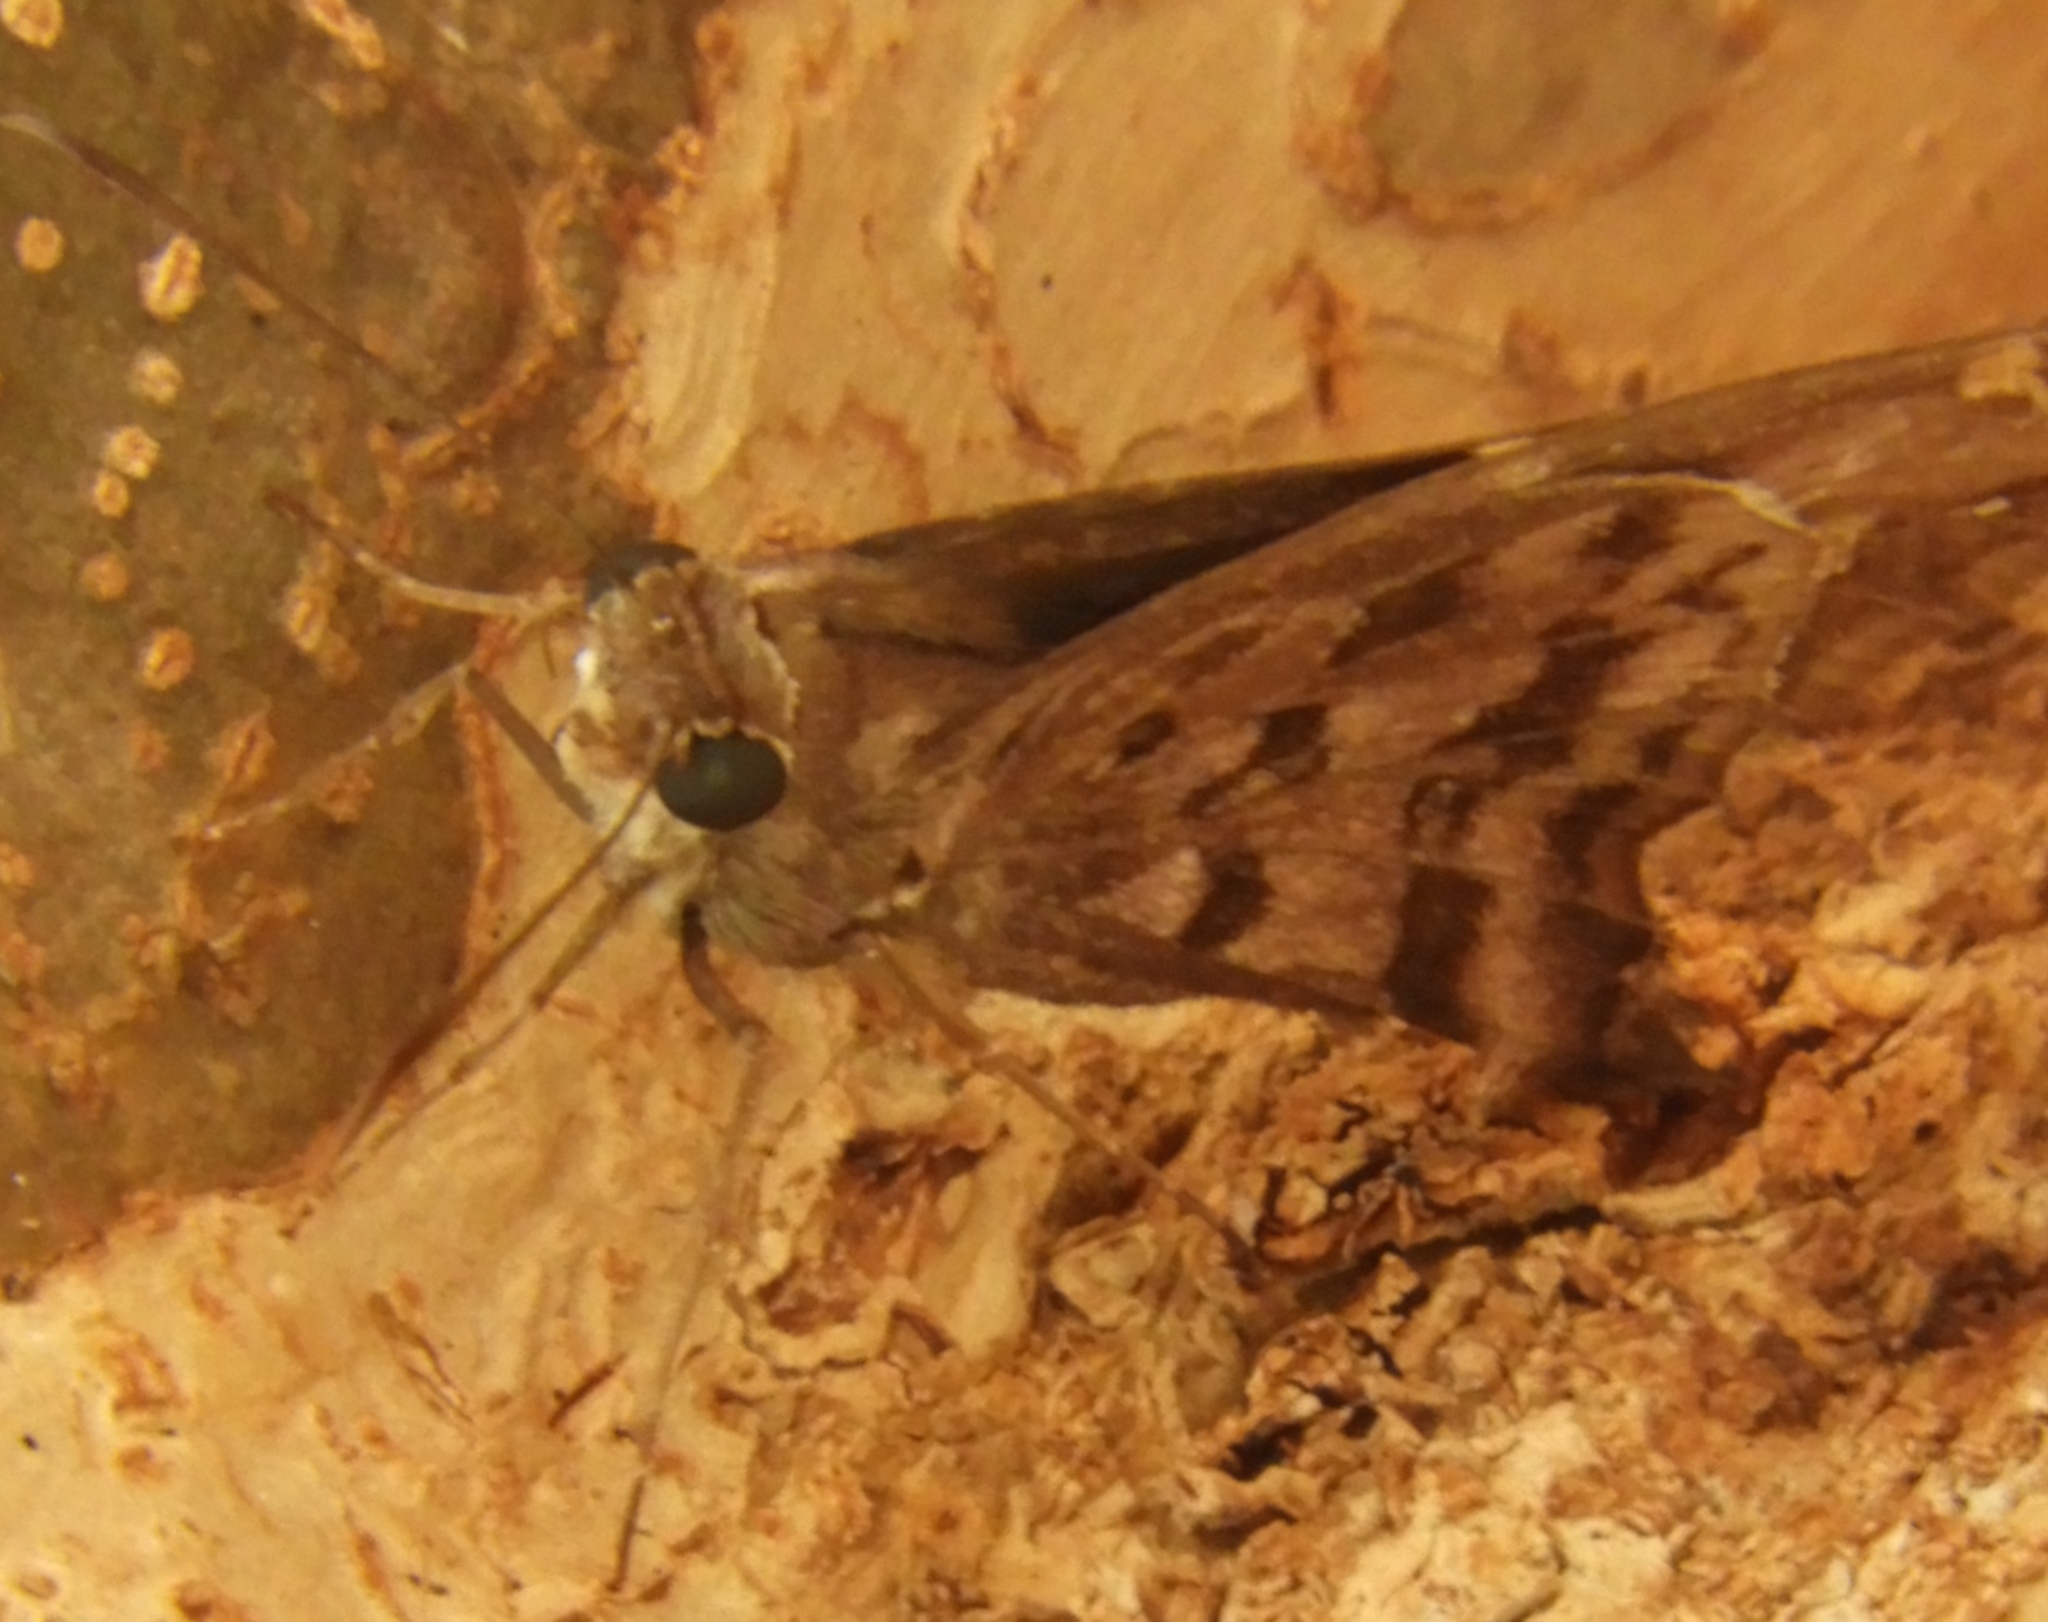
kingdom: Animalia
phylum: Arthropoda
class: Insecta
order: Lepidoptera
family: Hesperiidae
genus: Thorybes
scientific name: Thorybes
